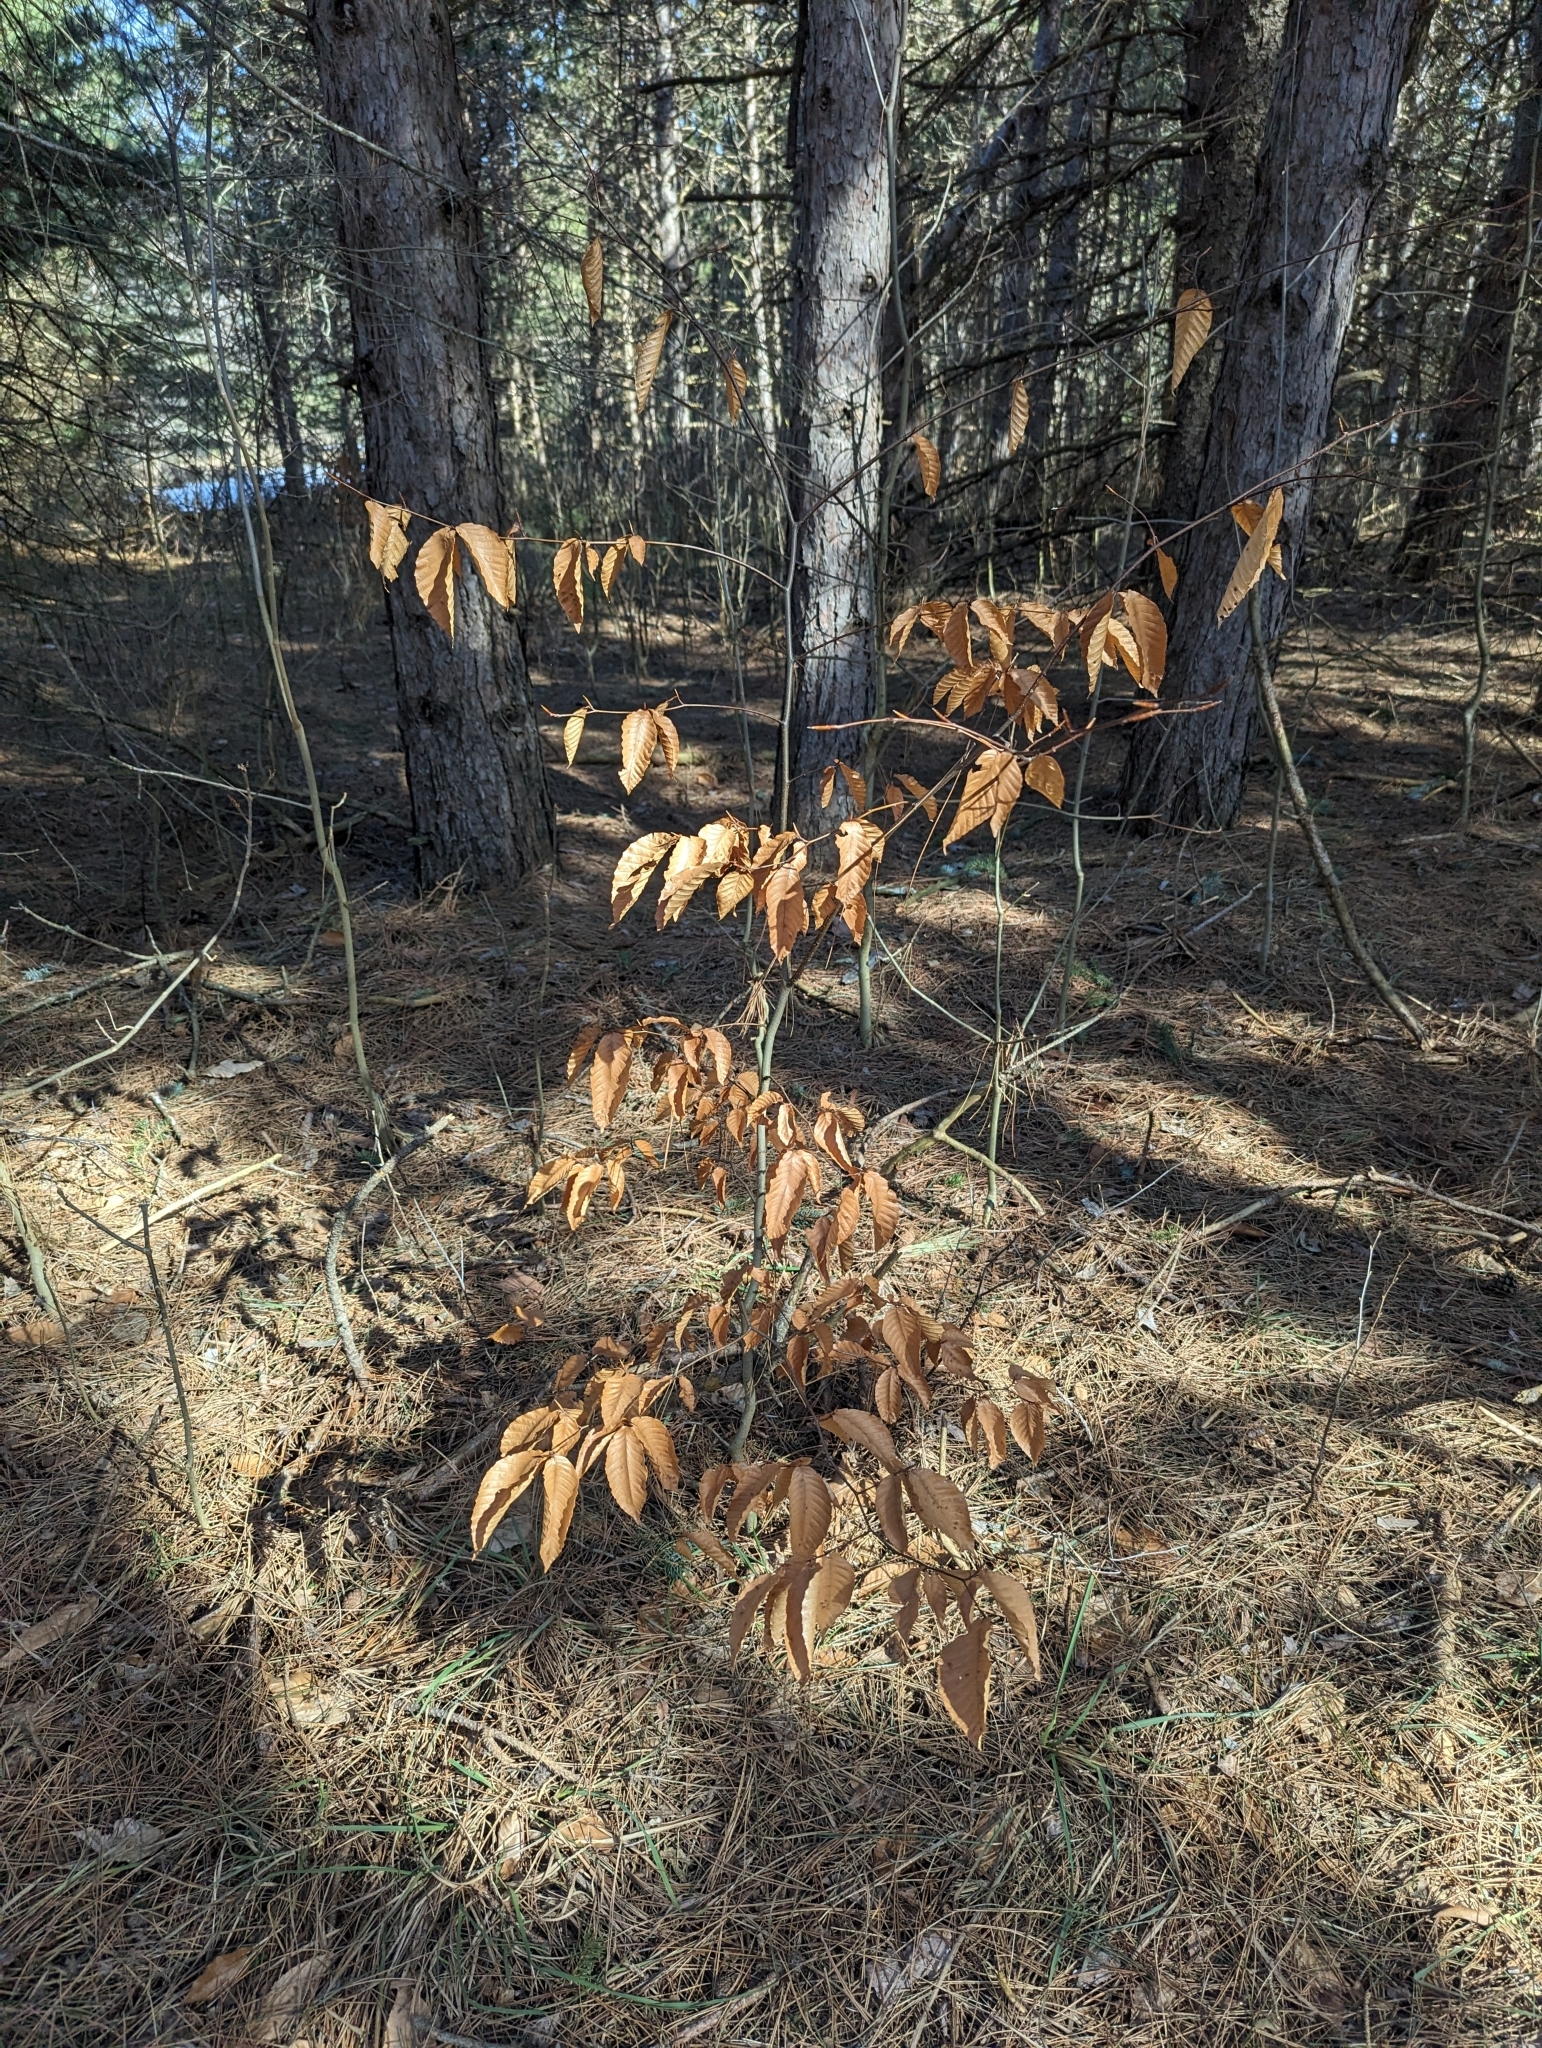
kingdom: Plantae
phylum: Tracheophyta
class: Magnoliopsida
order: Fagales
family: Fagaceae
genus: Fagus
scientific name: Fagus grandifolia
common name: American beech
